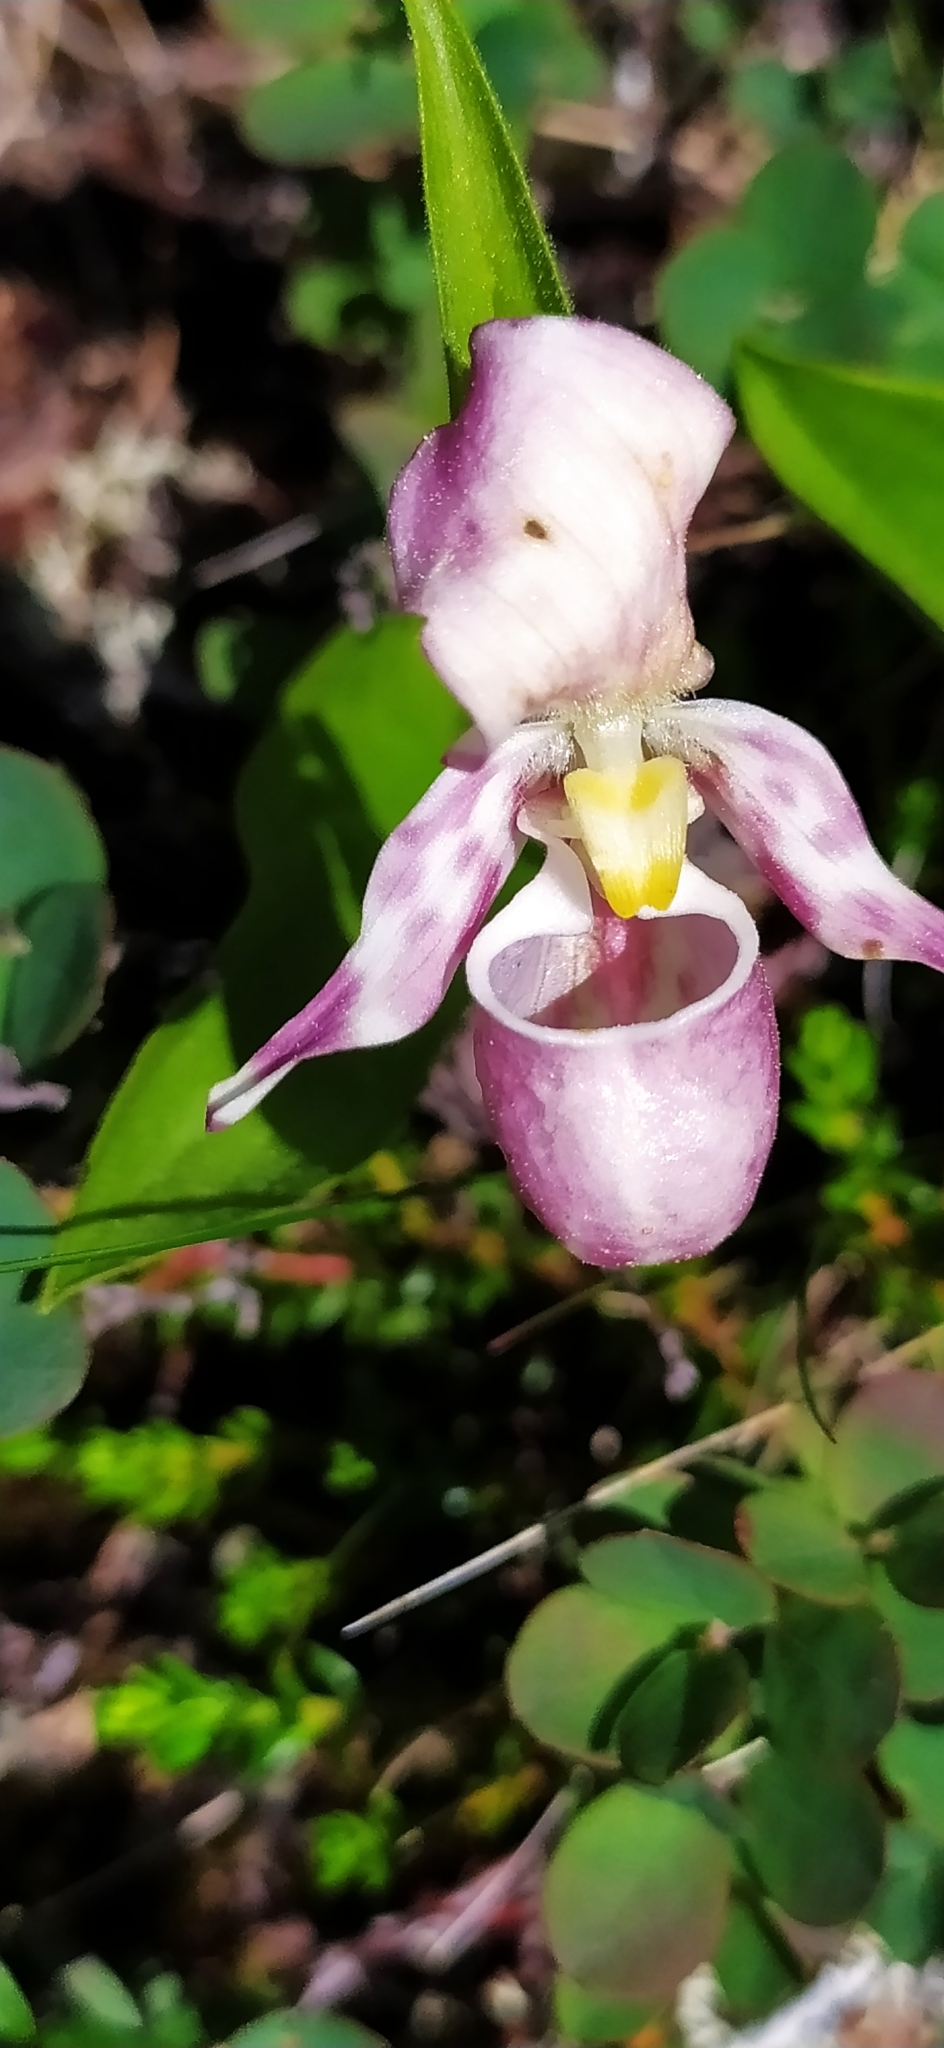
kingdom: Plantae
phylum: Tracheophyta
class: Liliopsida
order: Asparagales
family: Orchidaceae
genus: Cypripedium
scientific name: Cypripedium guttatum
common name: Pink lady slipper
